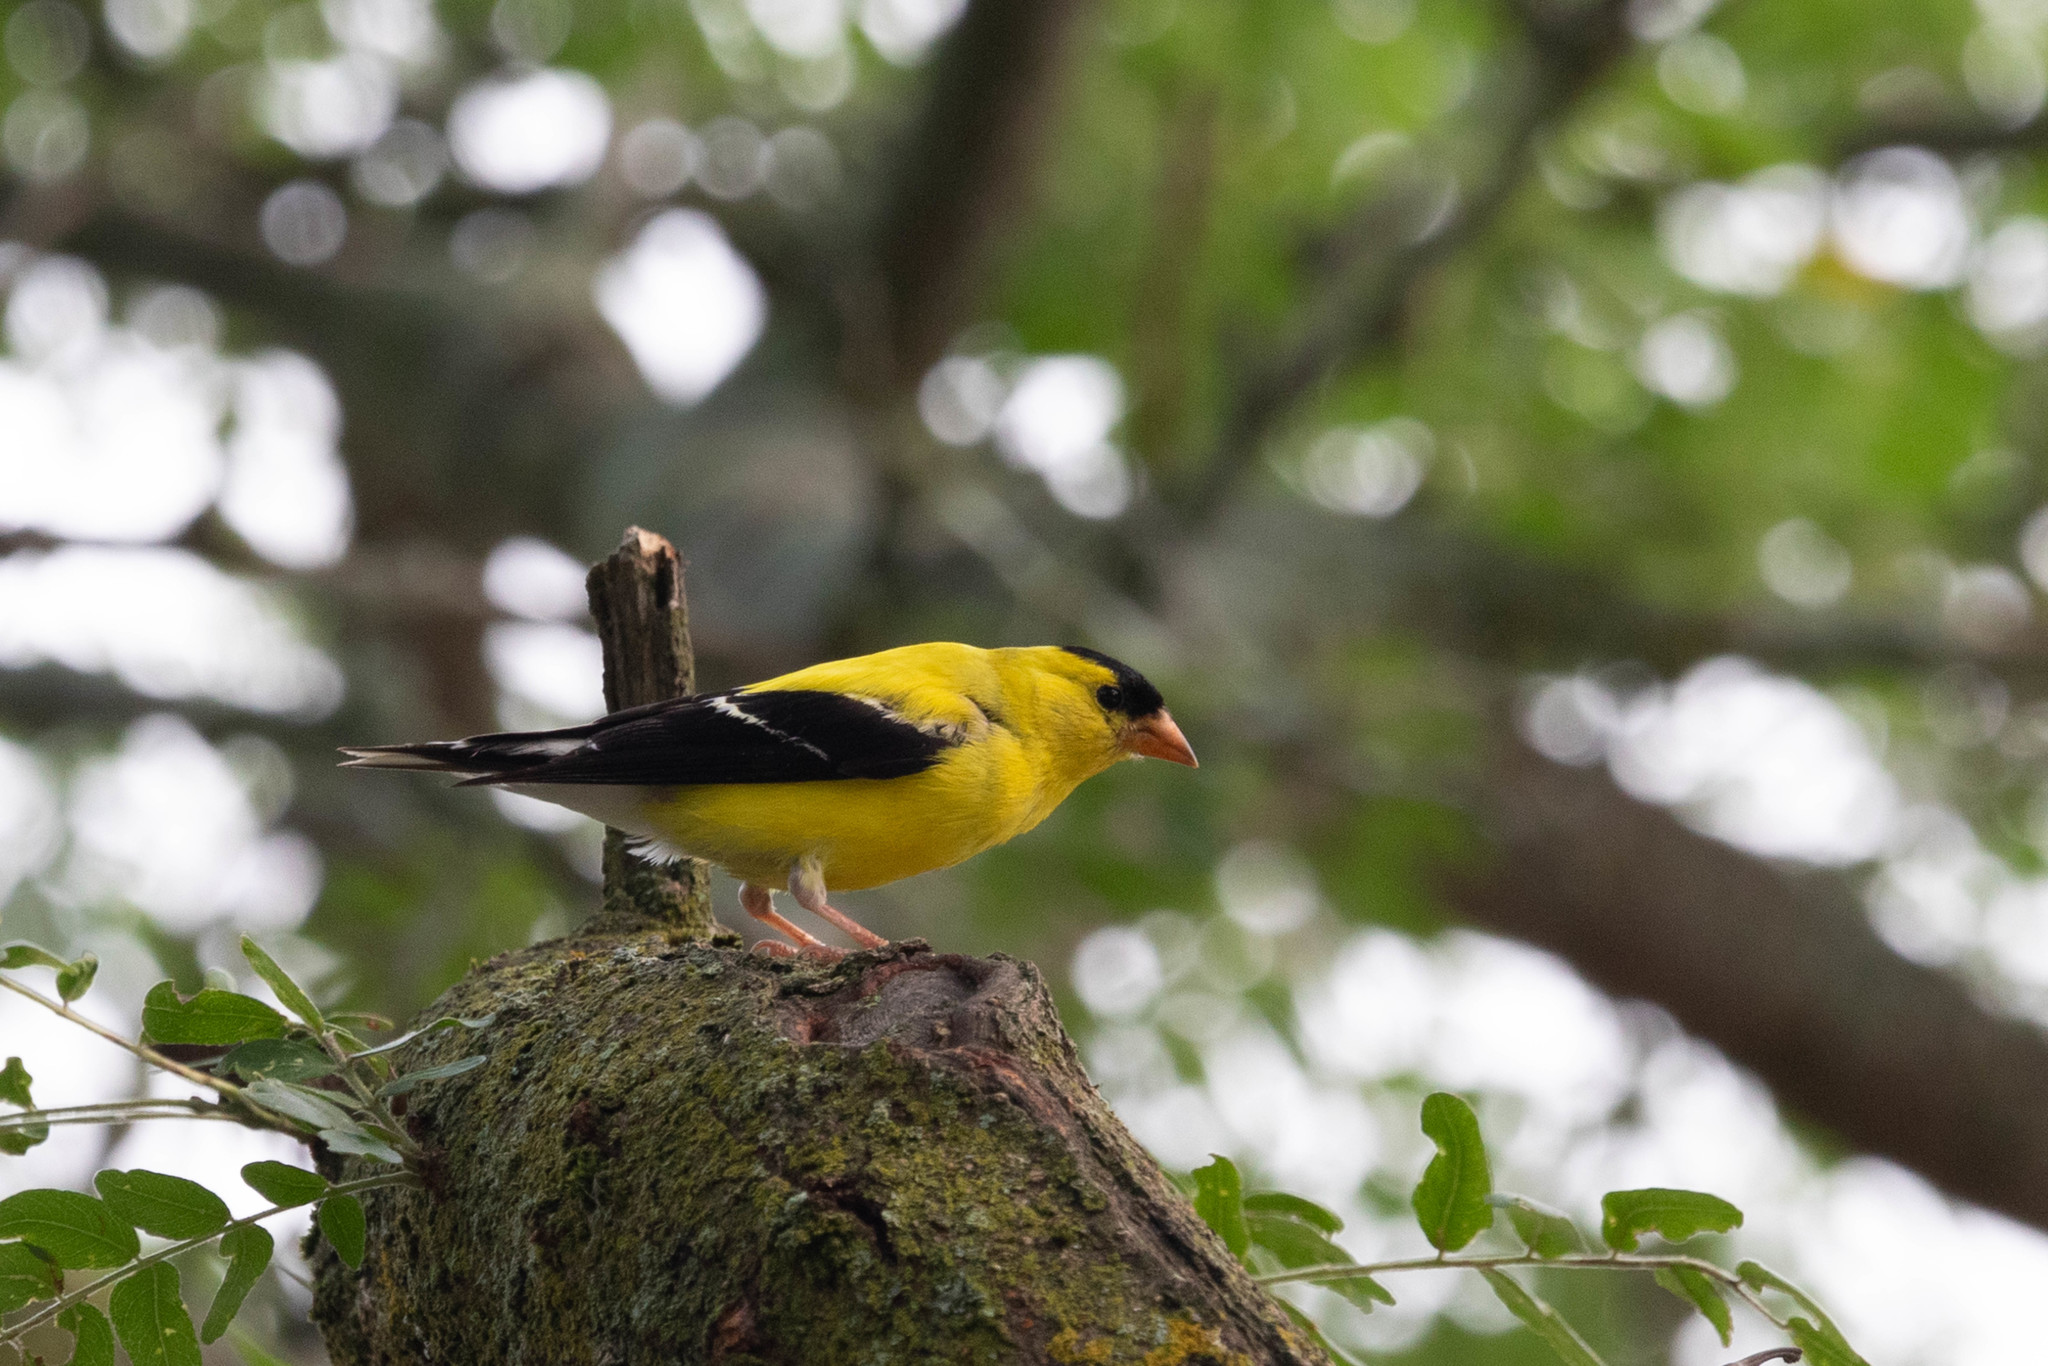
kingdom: Animalia
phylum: Chordata
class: Aves
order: Passeriformes
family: Fringillidae
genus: Spinus
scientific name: Spinus tristis
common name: American goldfinch
